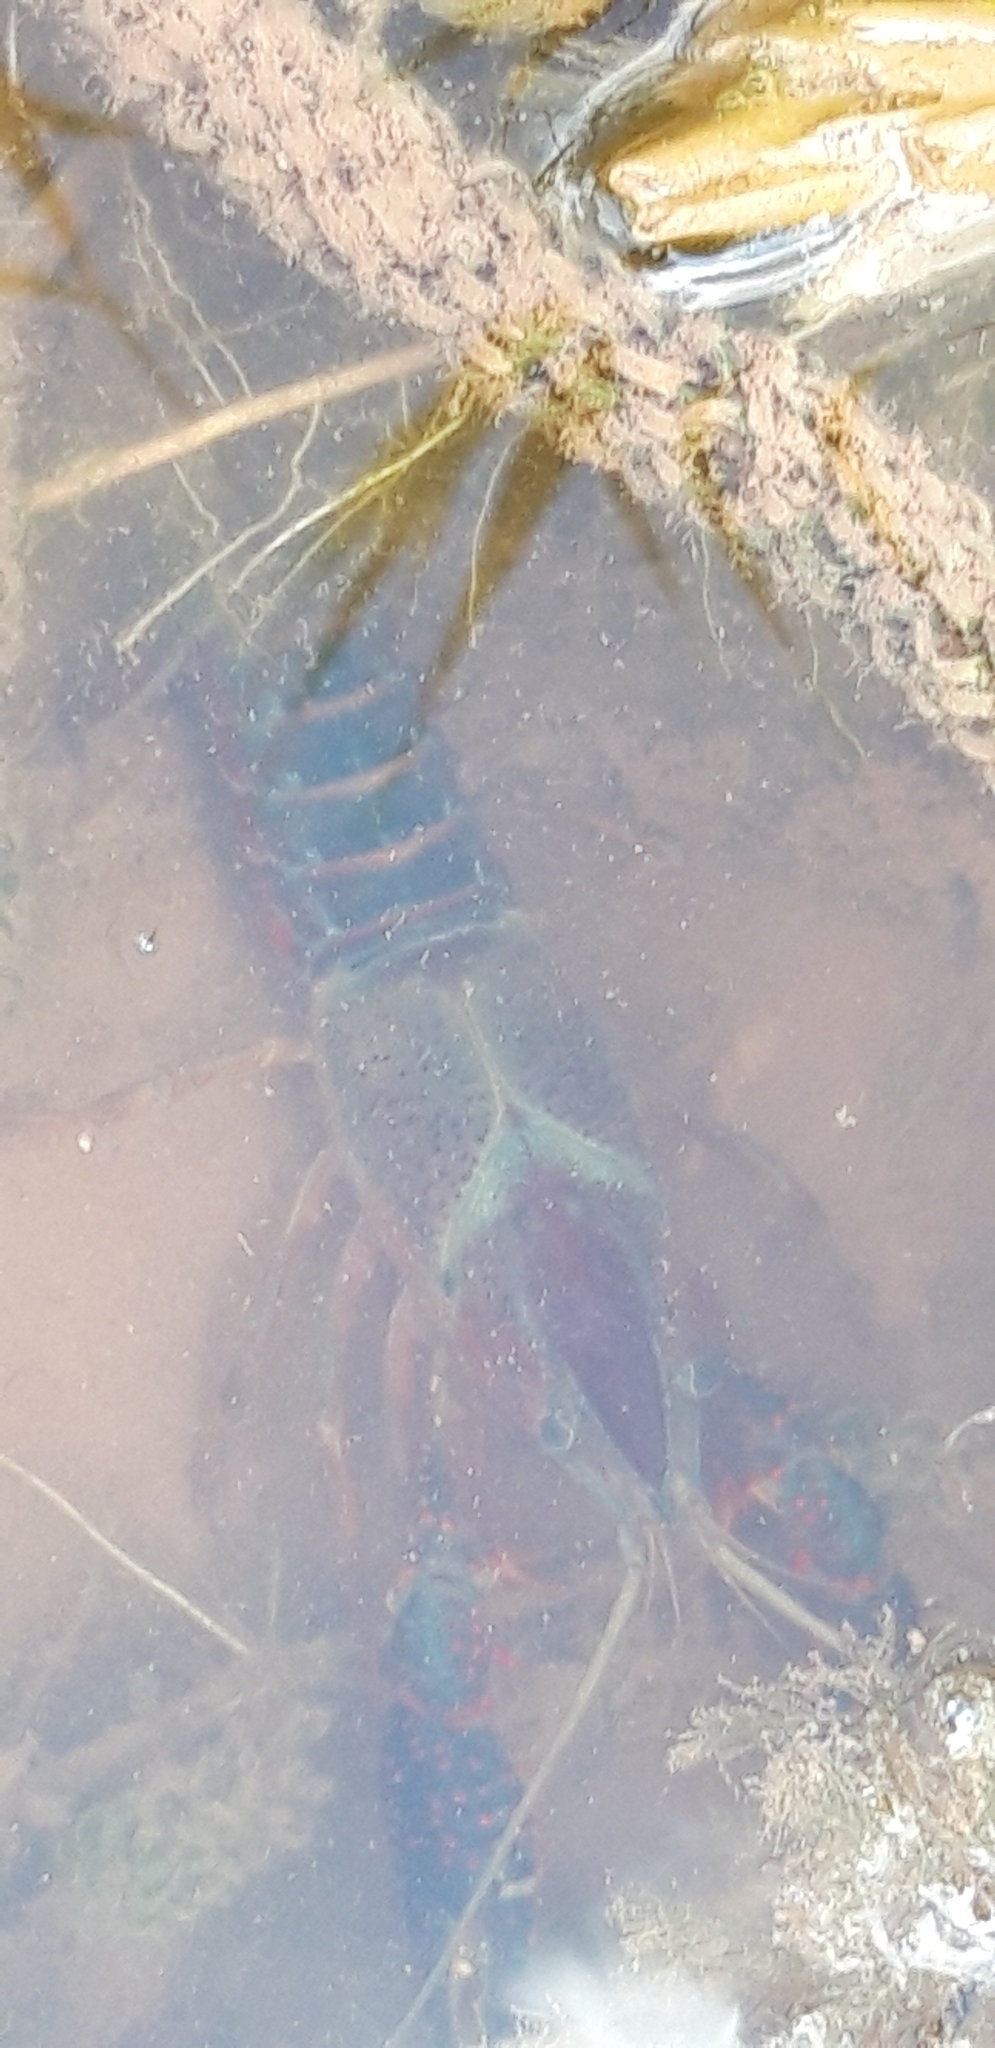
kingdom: Animalia
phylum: Arthropoda
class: Malacostraca
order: Decapoda
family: Cambaridae
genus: Procambarus
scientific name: Procambarus clarkii
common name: Red swamp crayfish
